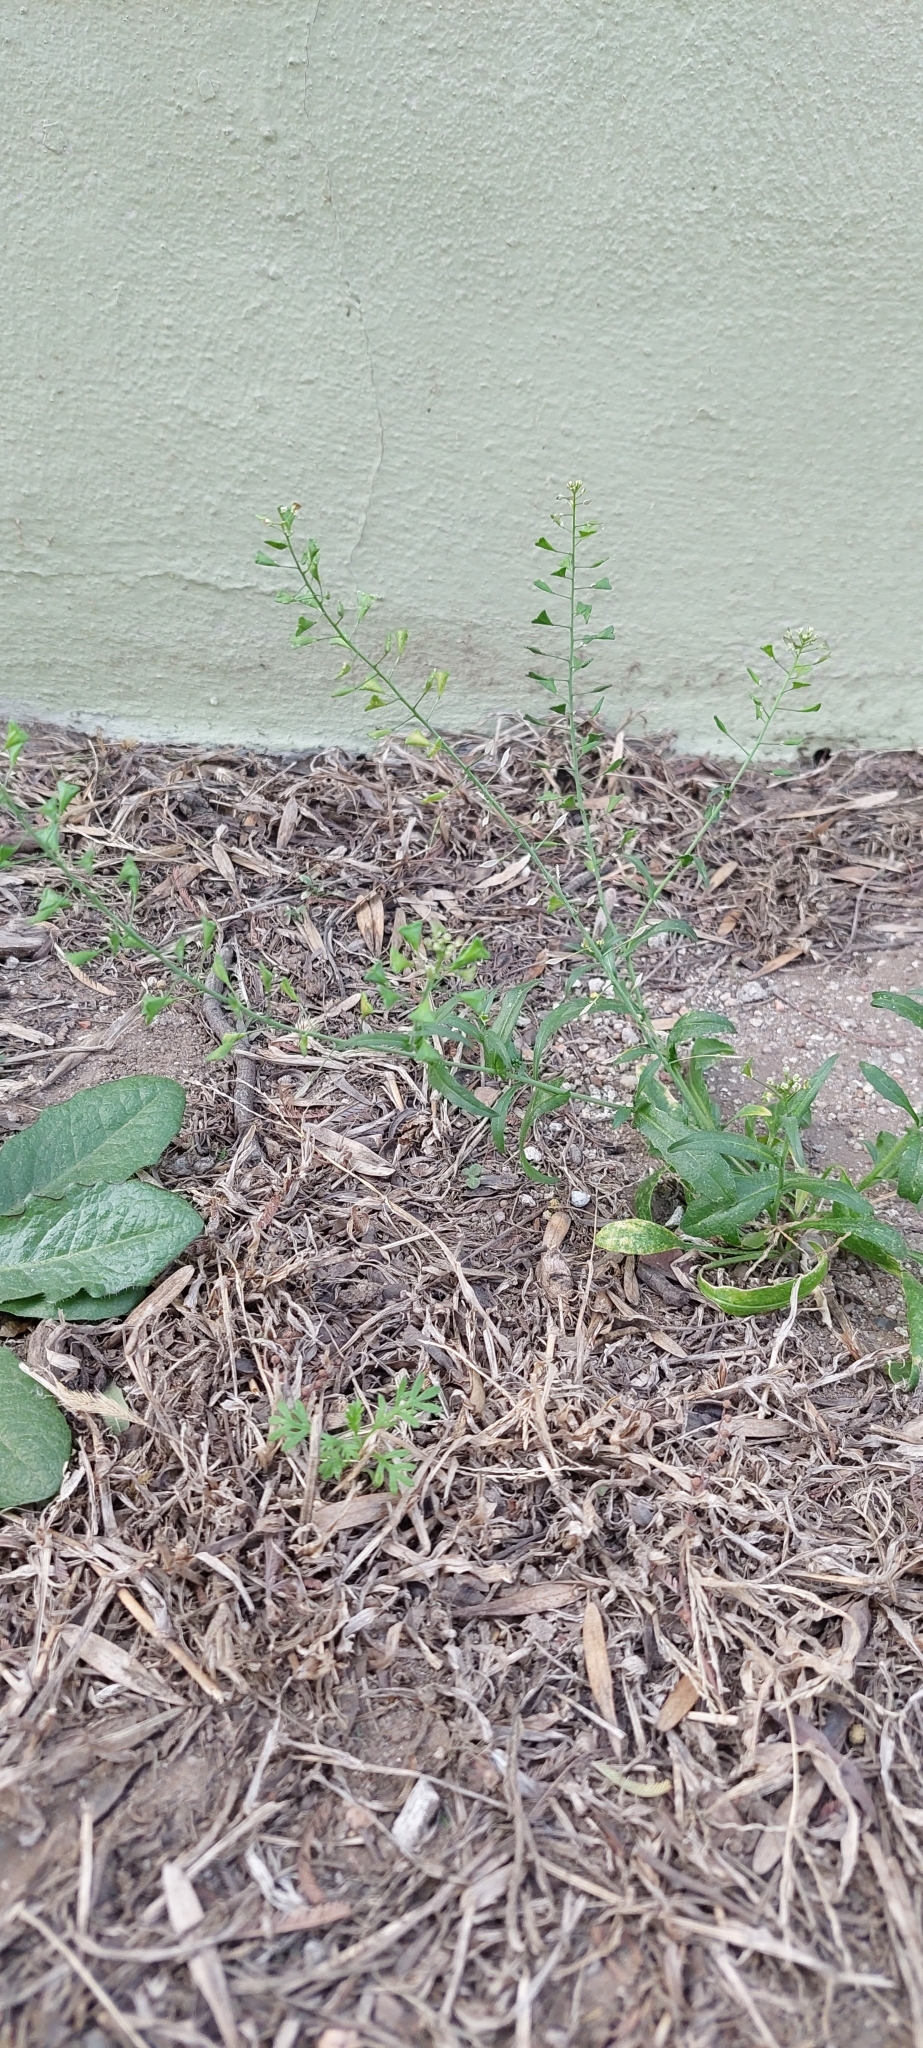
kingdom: Plantae
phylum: Tracheophyta
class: Magnoliopsida
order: Brassicales
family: Brassicaceae
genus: Capsella
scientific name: Capsella bursa-pastoris
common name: Shepherd's purse
